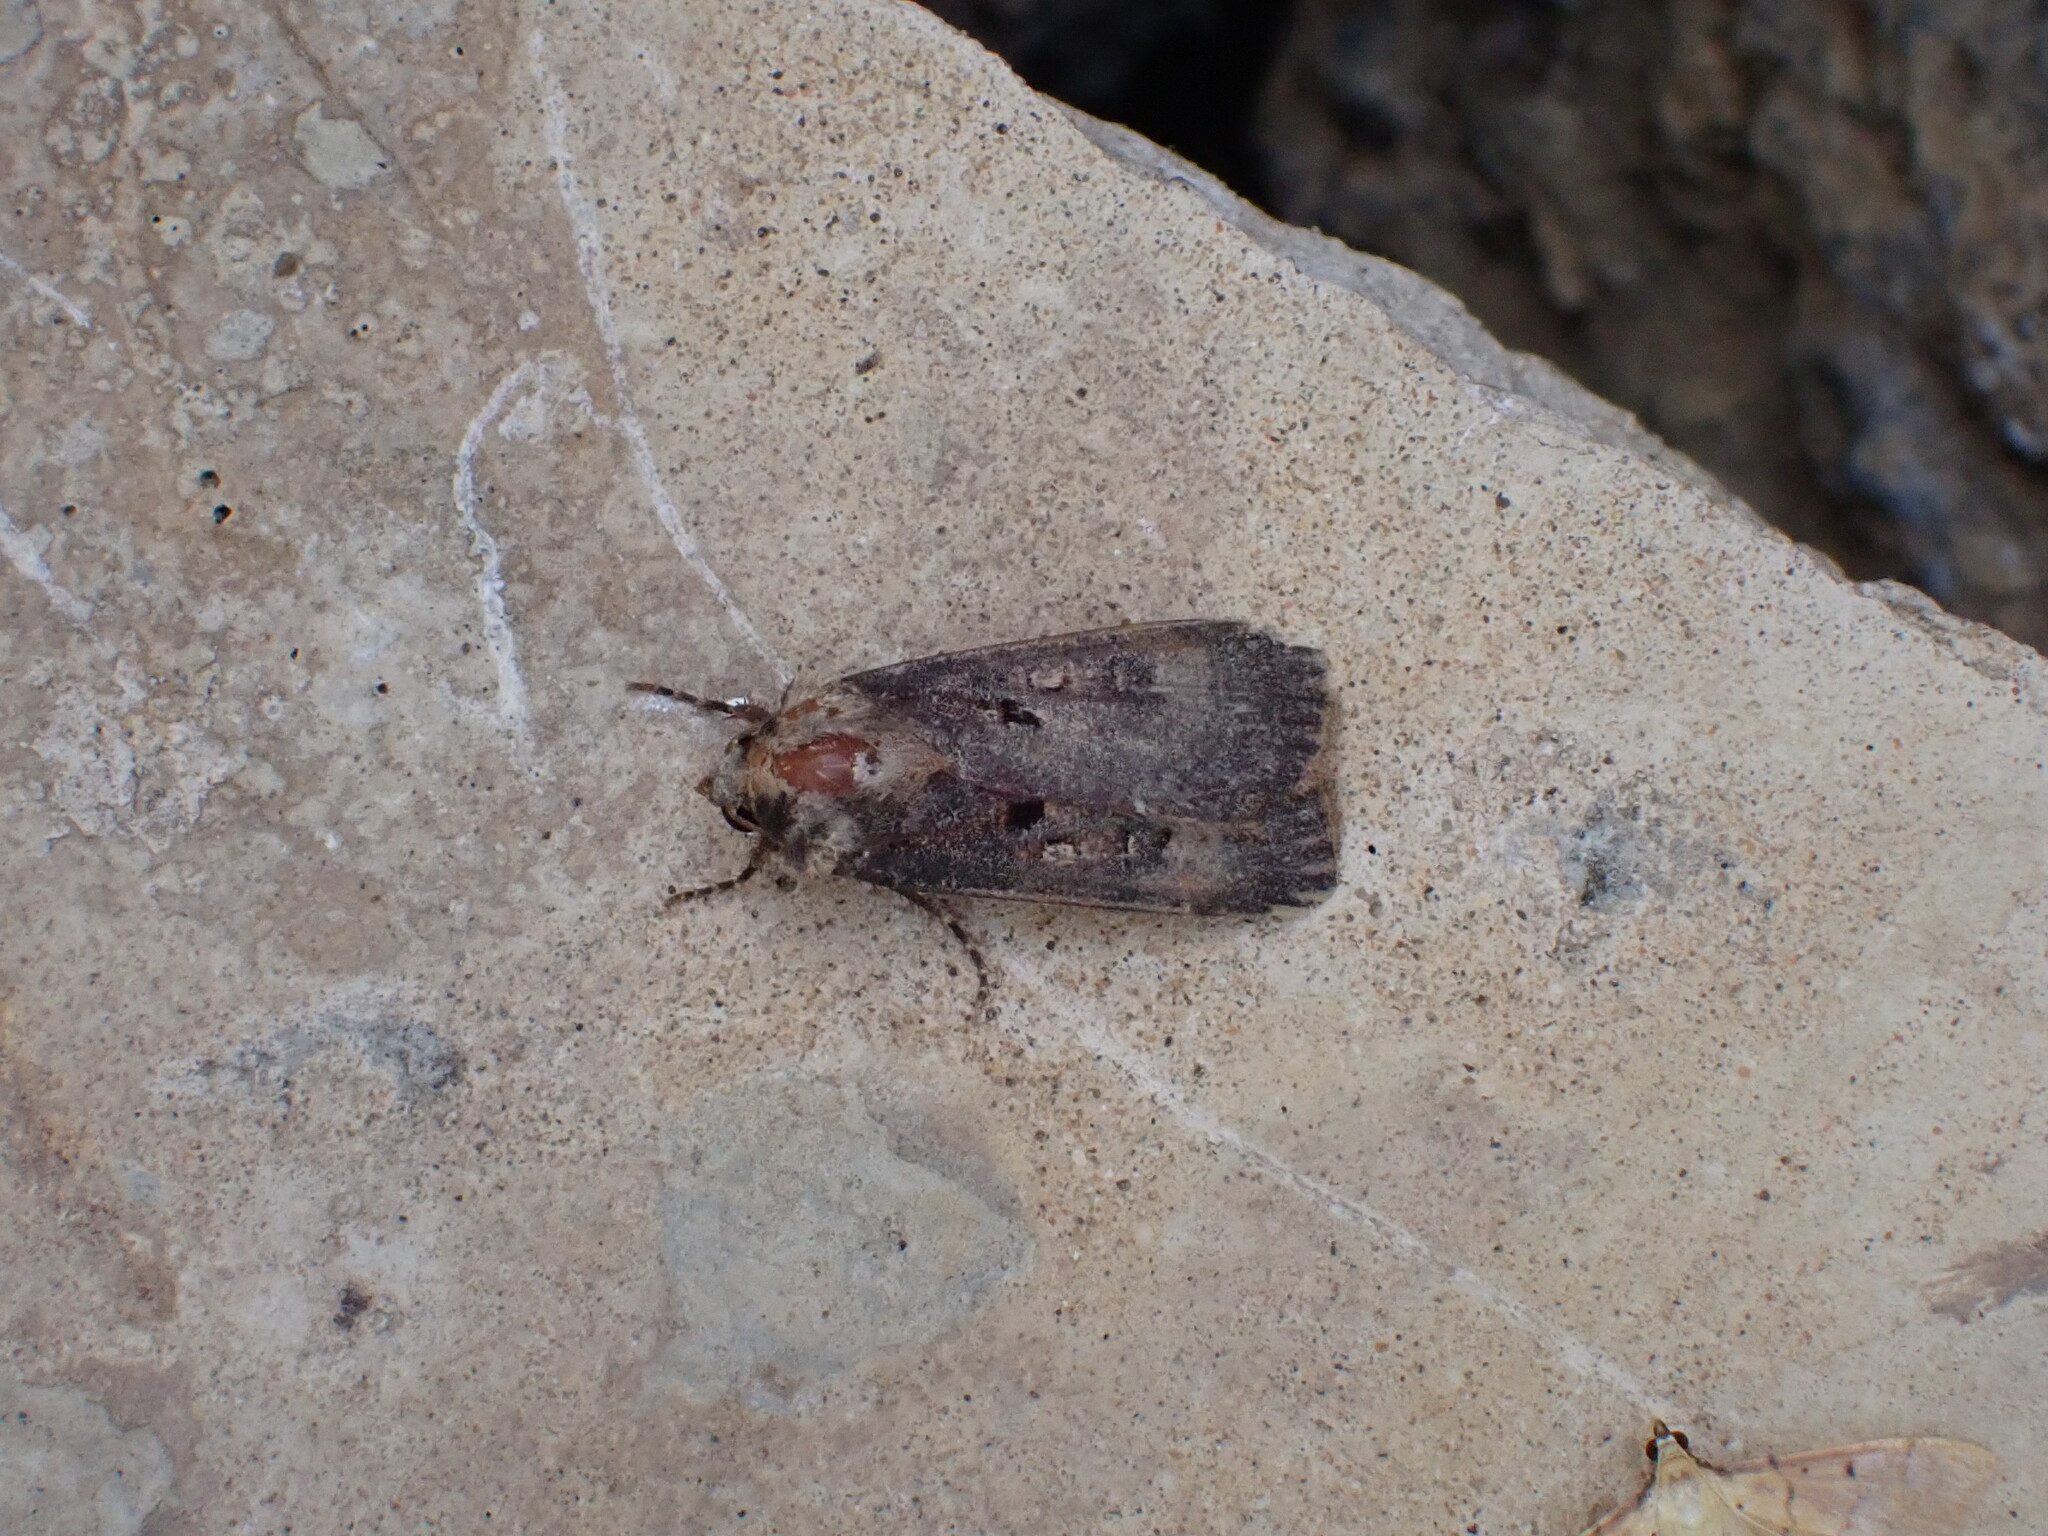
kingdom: Animalia
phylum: Arthropoda
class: Insecta
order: Lepidoptera
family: Noctuidae
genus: Agrotis
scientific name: Agrotis trux
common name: Crescent dart
